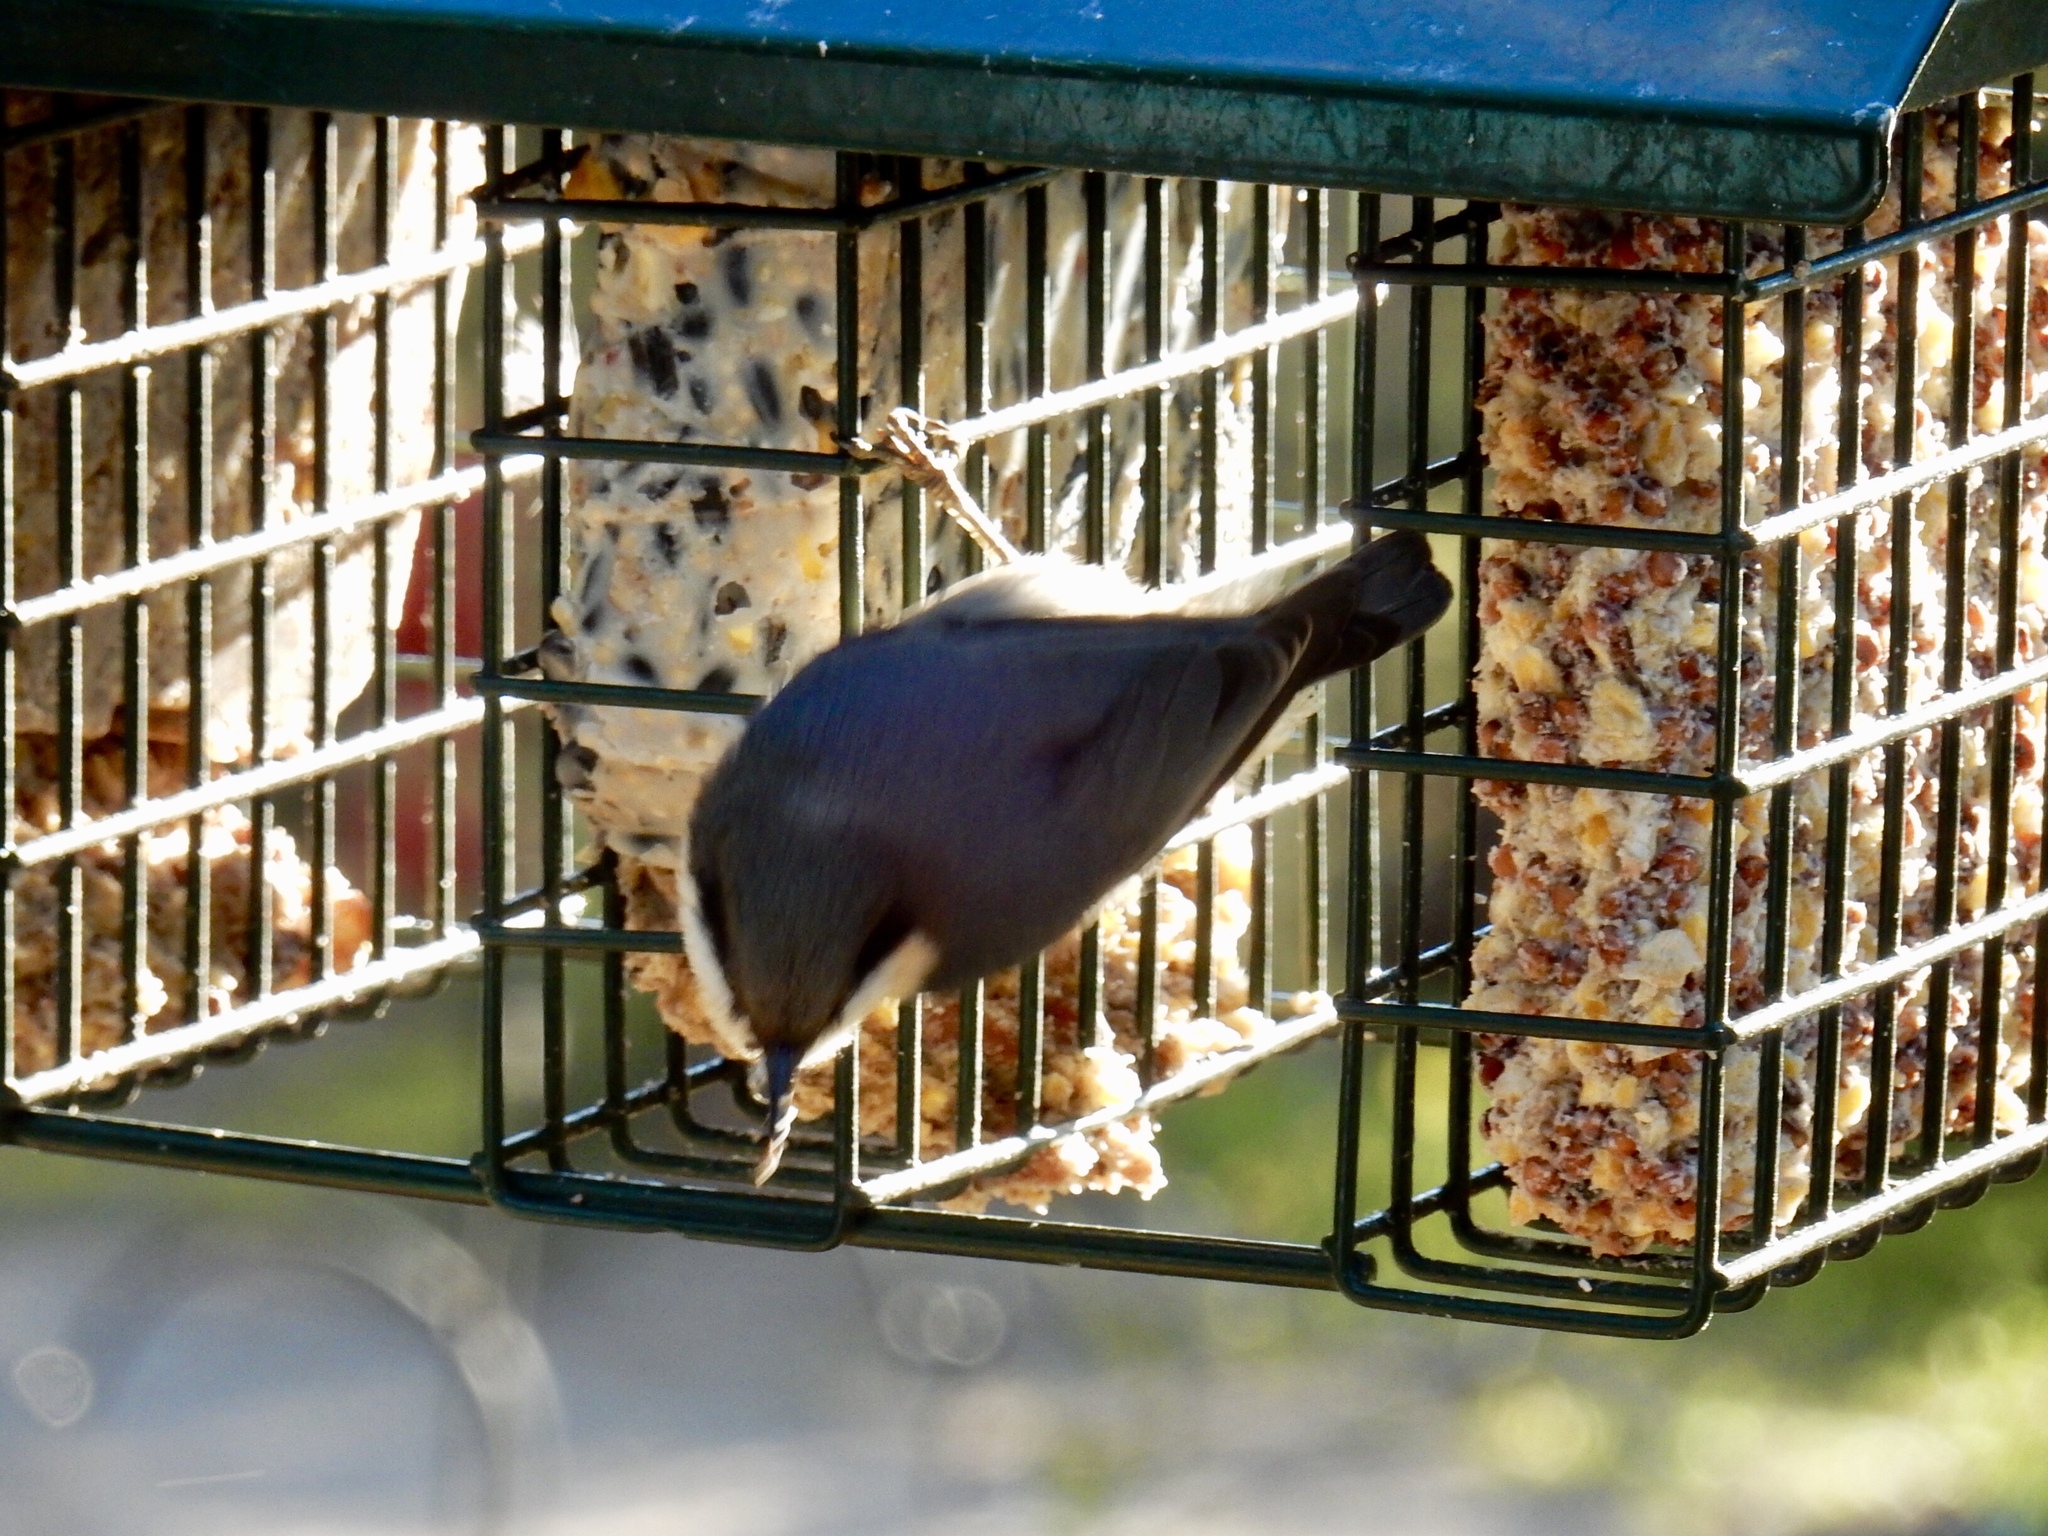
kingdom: Animalia
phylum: Chordata
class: Aves
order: Passeriformes
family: Sittidae
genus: Sitta
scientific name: Sitta pygmaea
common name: Pygmy nuthatch
